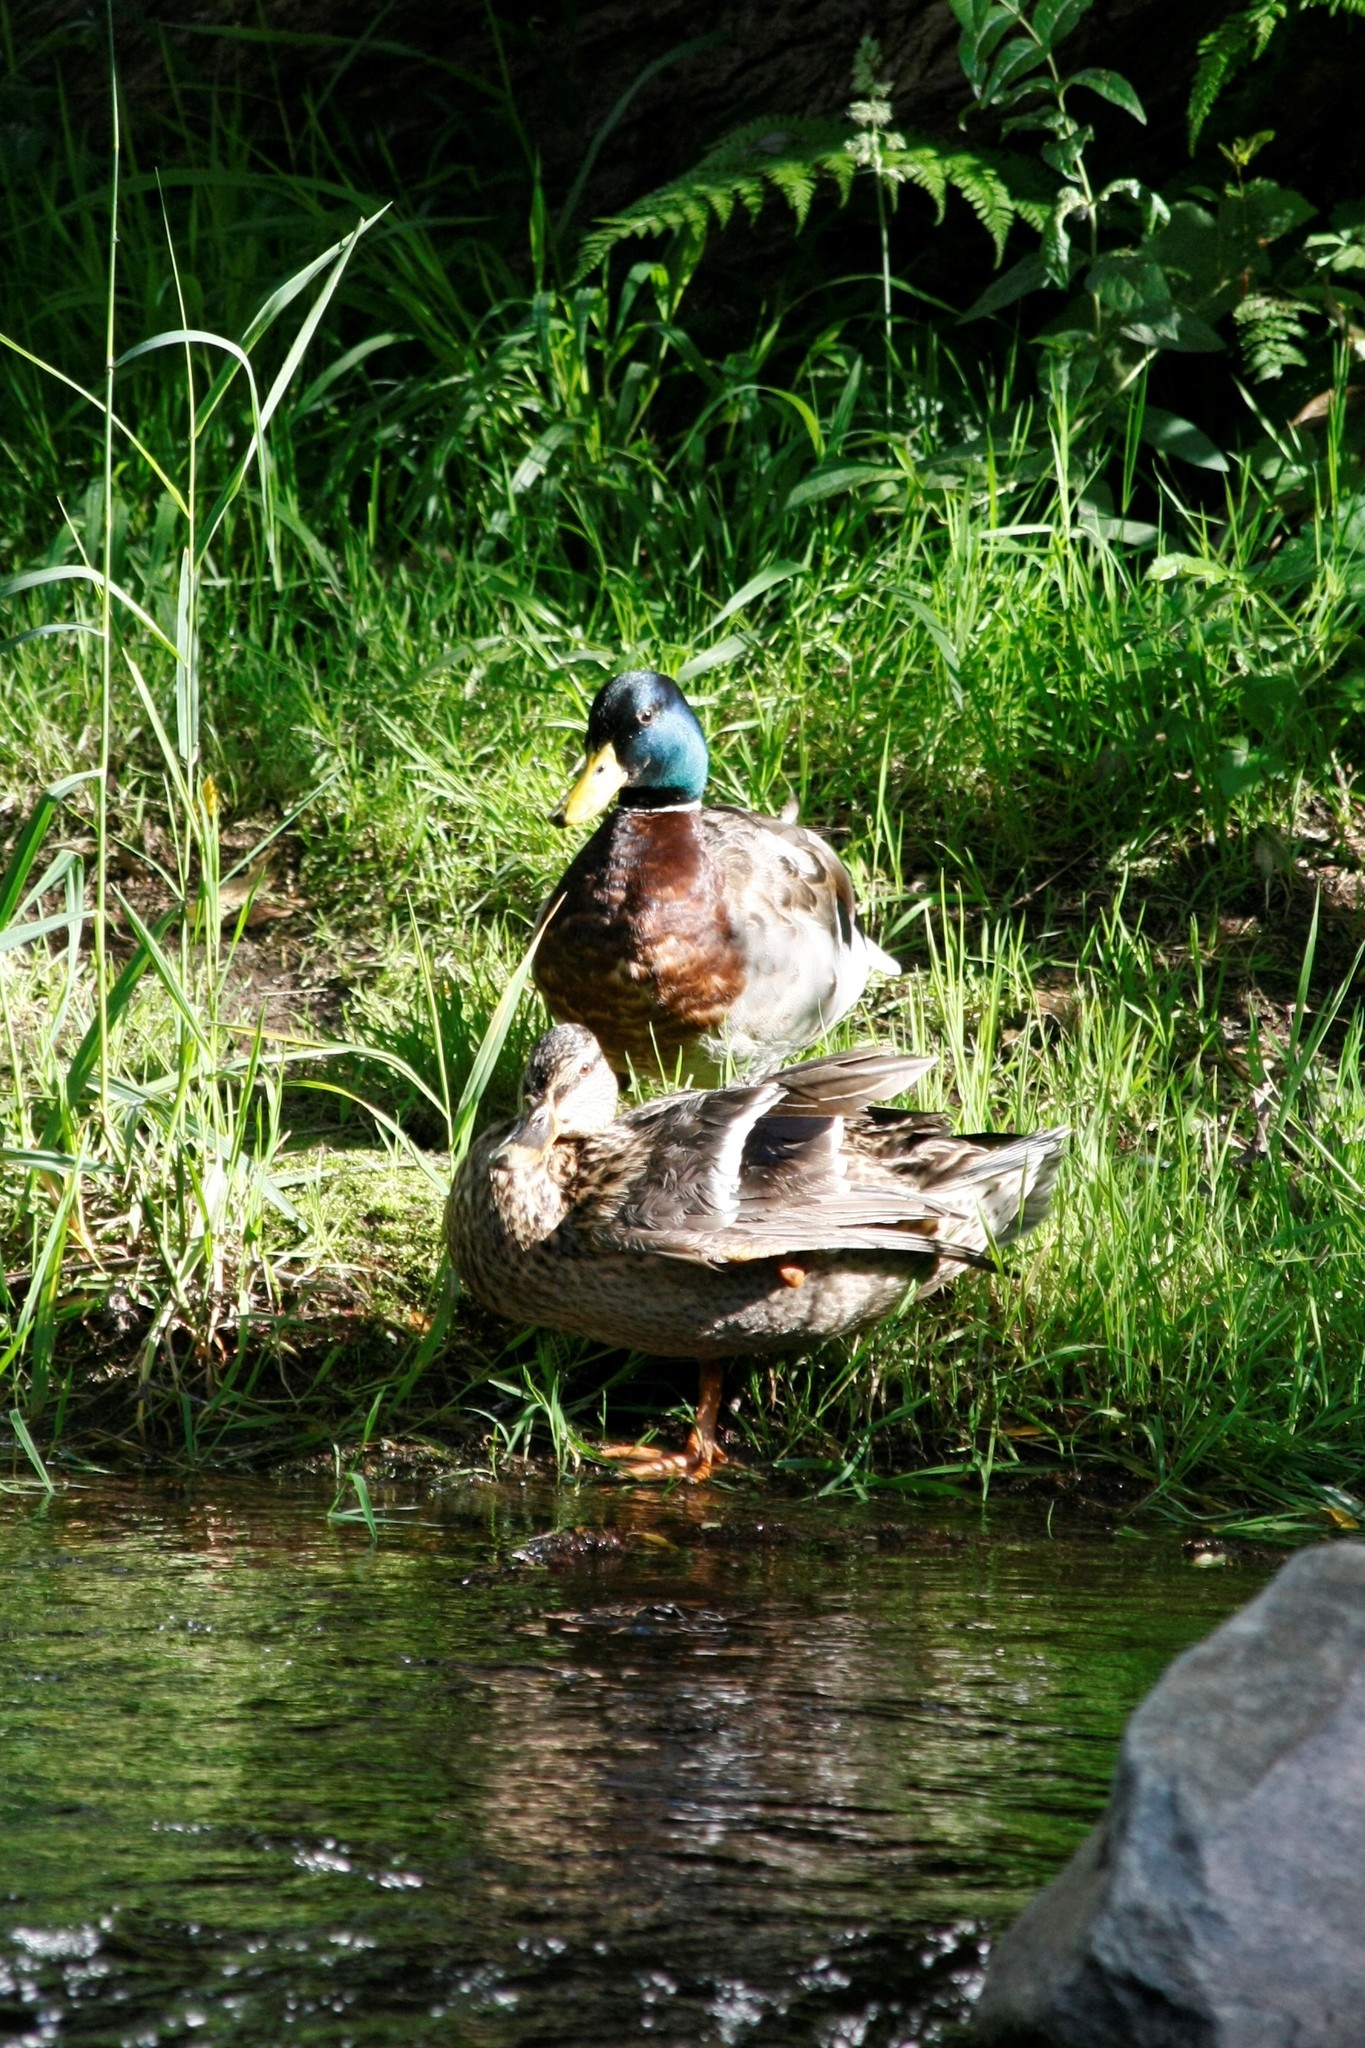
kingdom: Animalia
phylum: Chordata
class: Aves
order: Anseriformes
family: Anatidae
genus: Anas
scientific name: Anas platyrhynchos
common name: Mallard
